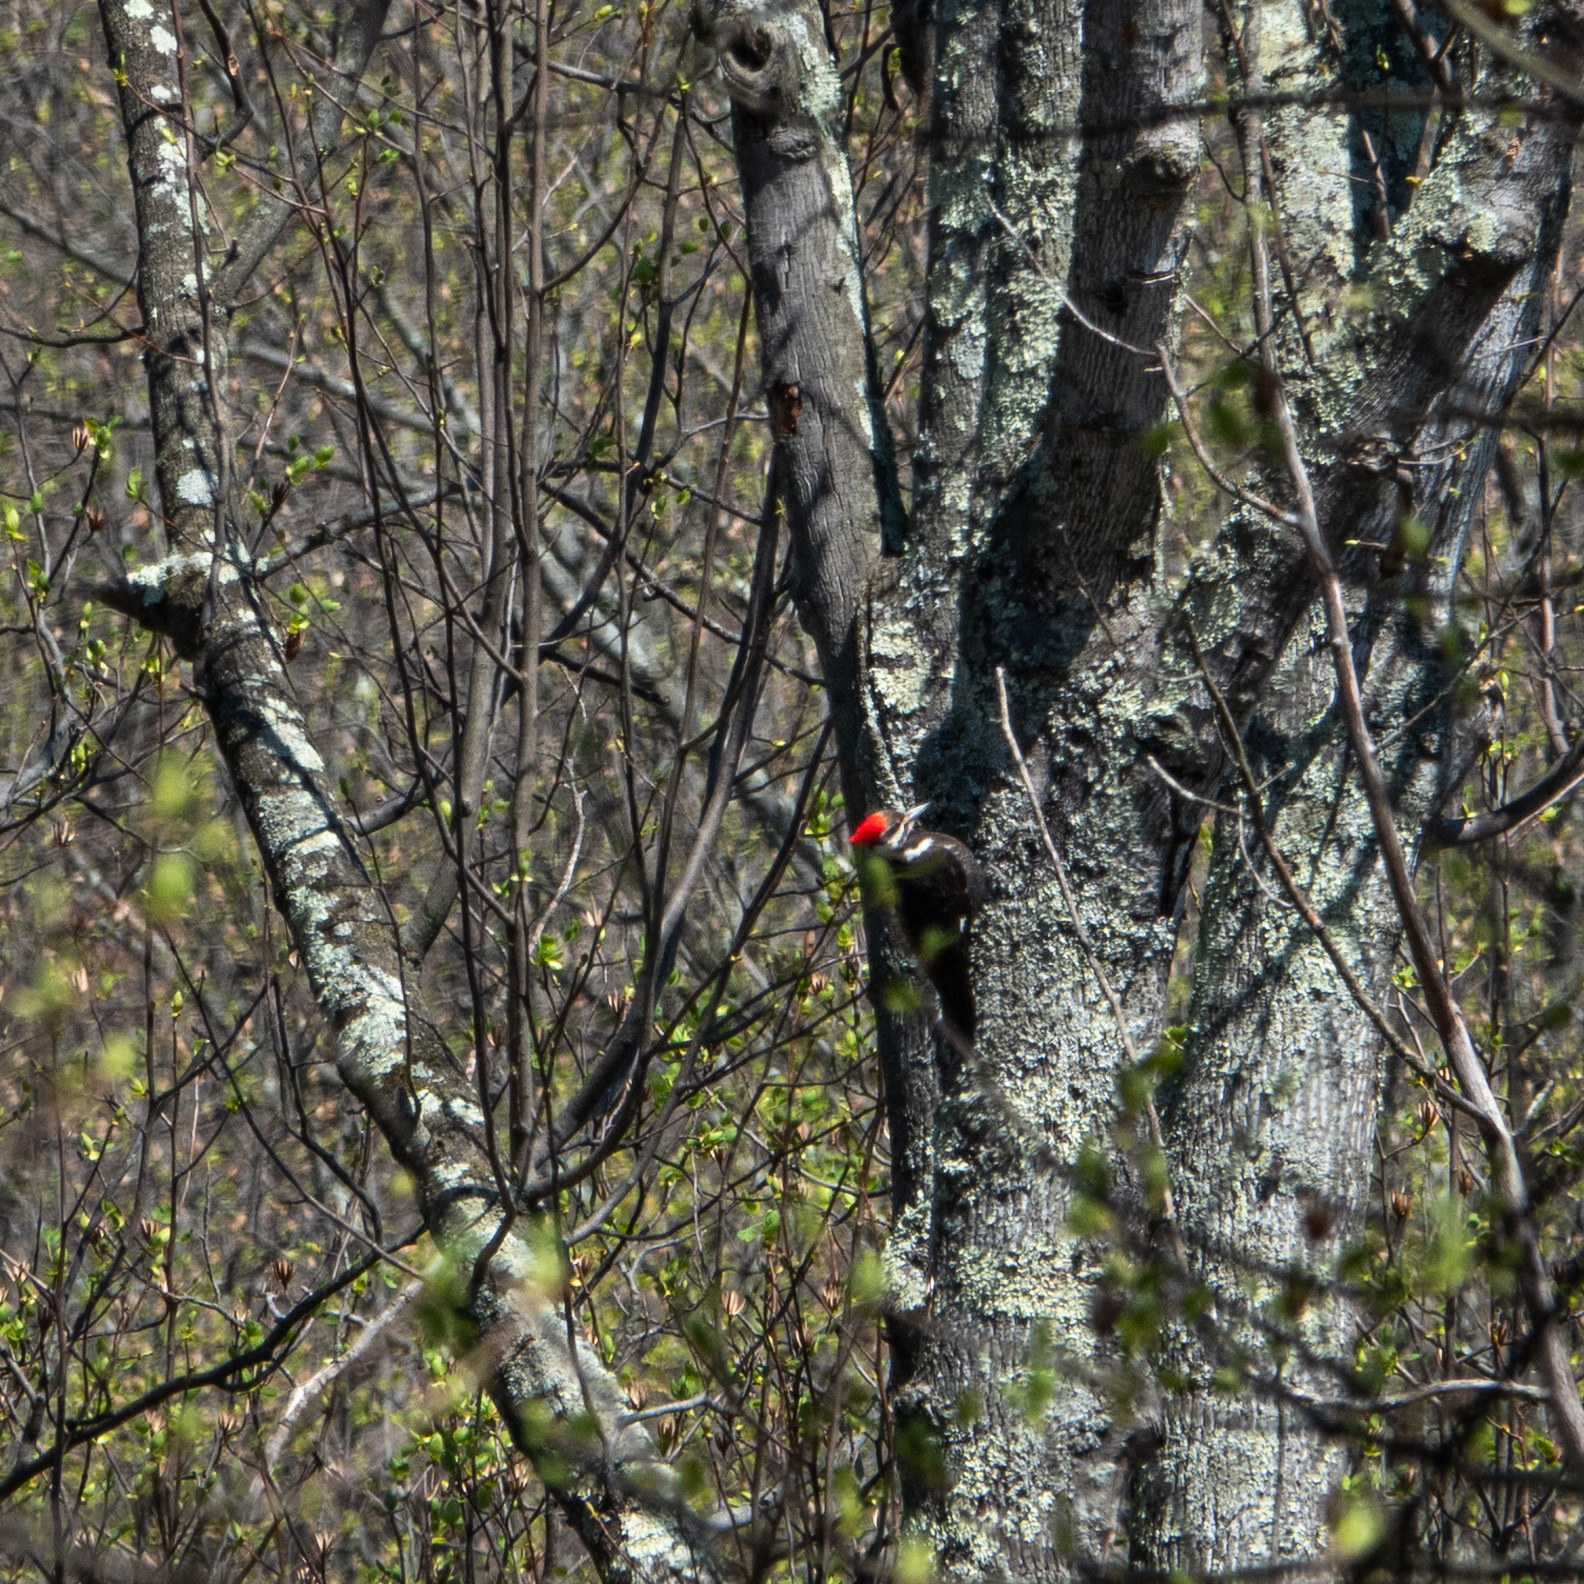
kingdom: Animalia
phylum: Chordata
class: Aves
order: Piciformes
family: Picidae
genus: Dryocopus
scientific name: Dryocopus pileatus
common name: Pileated woodpecker
